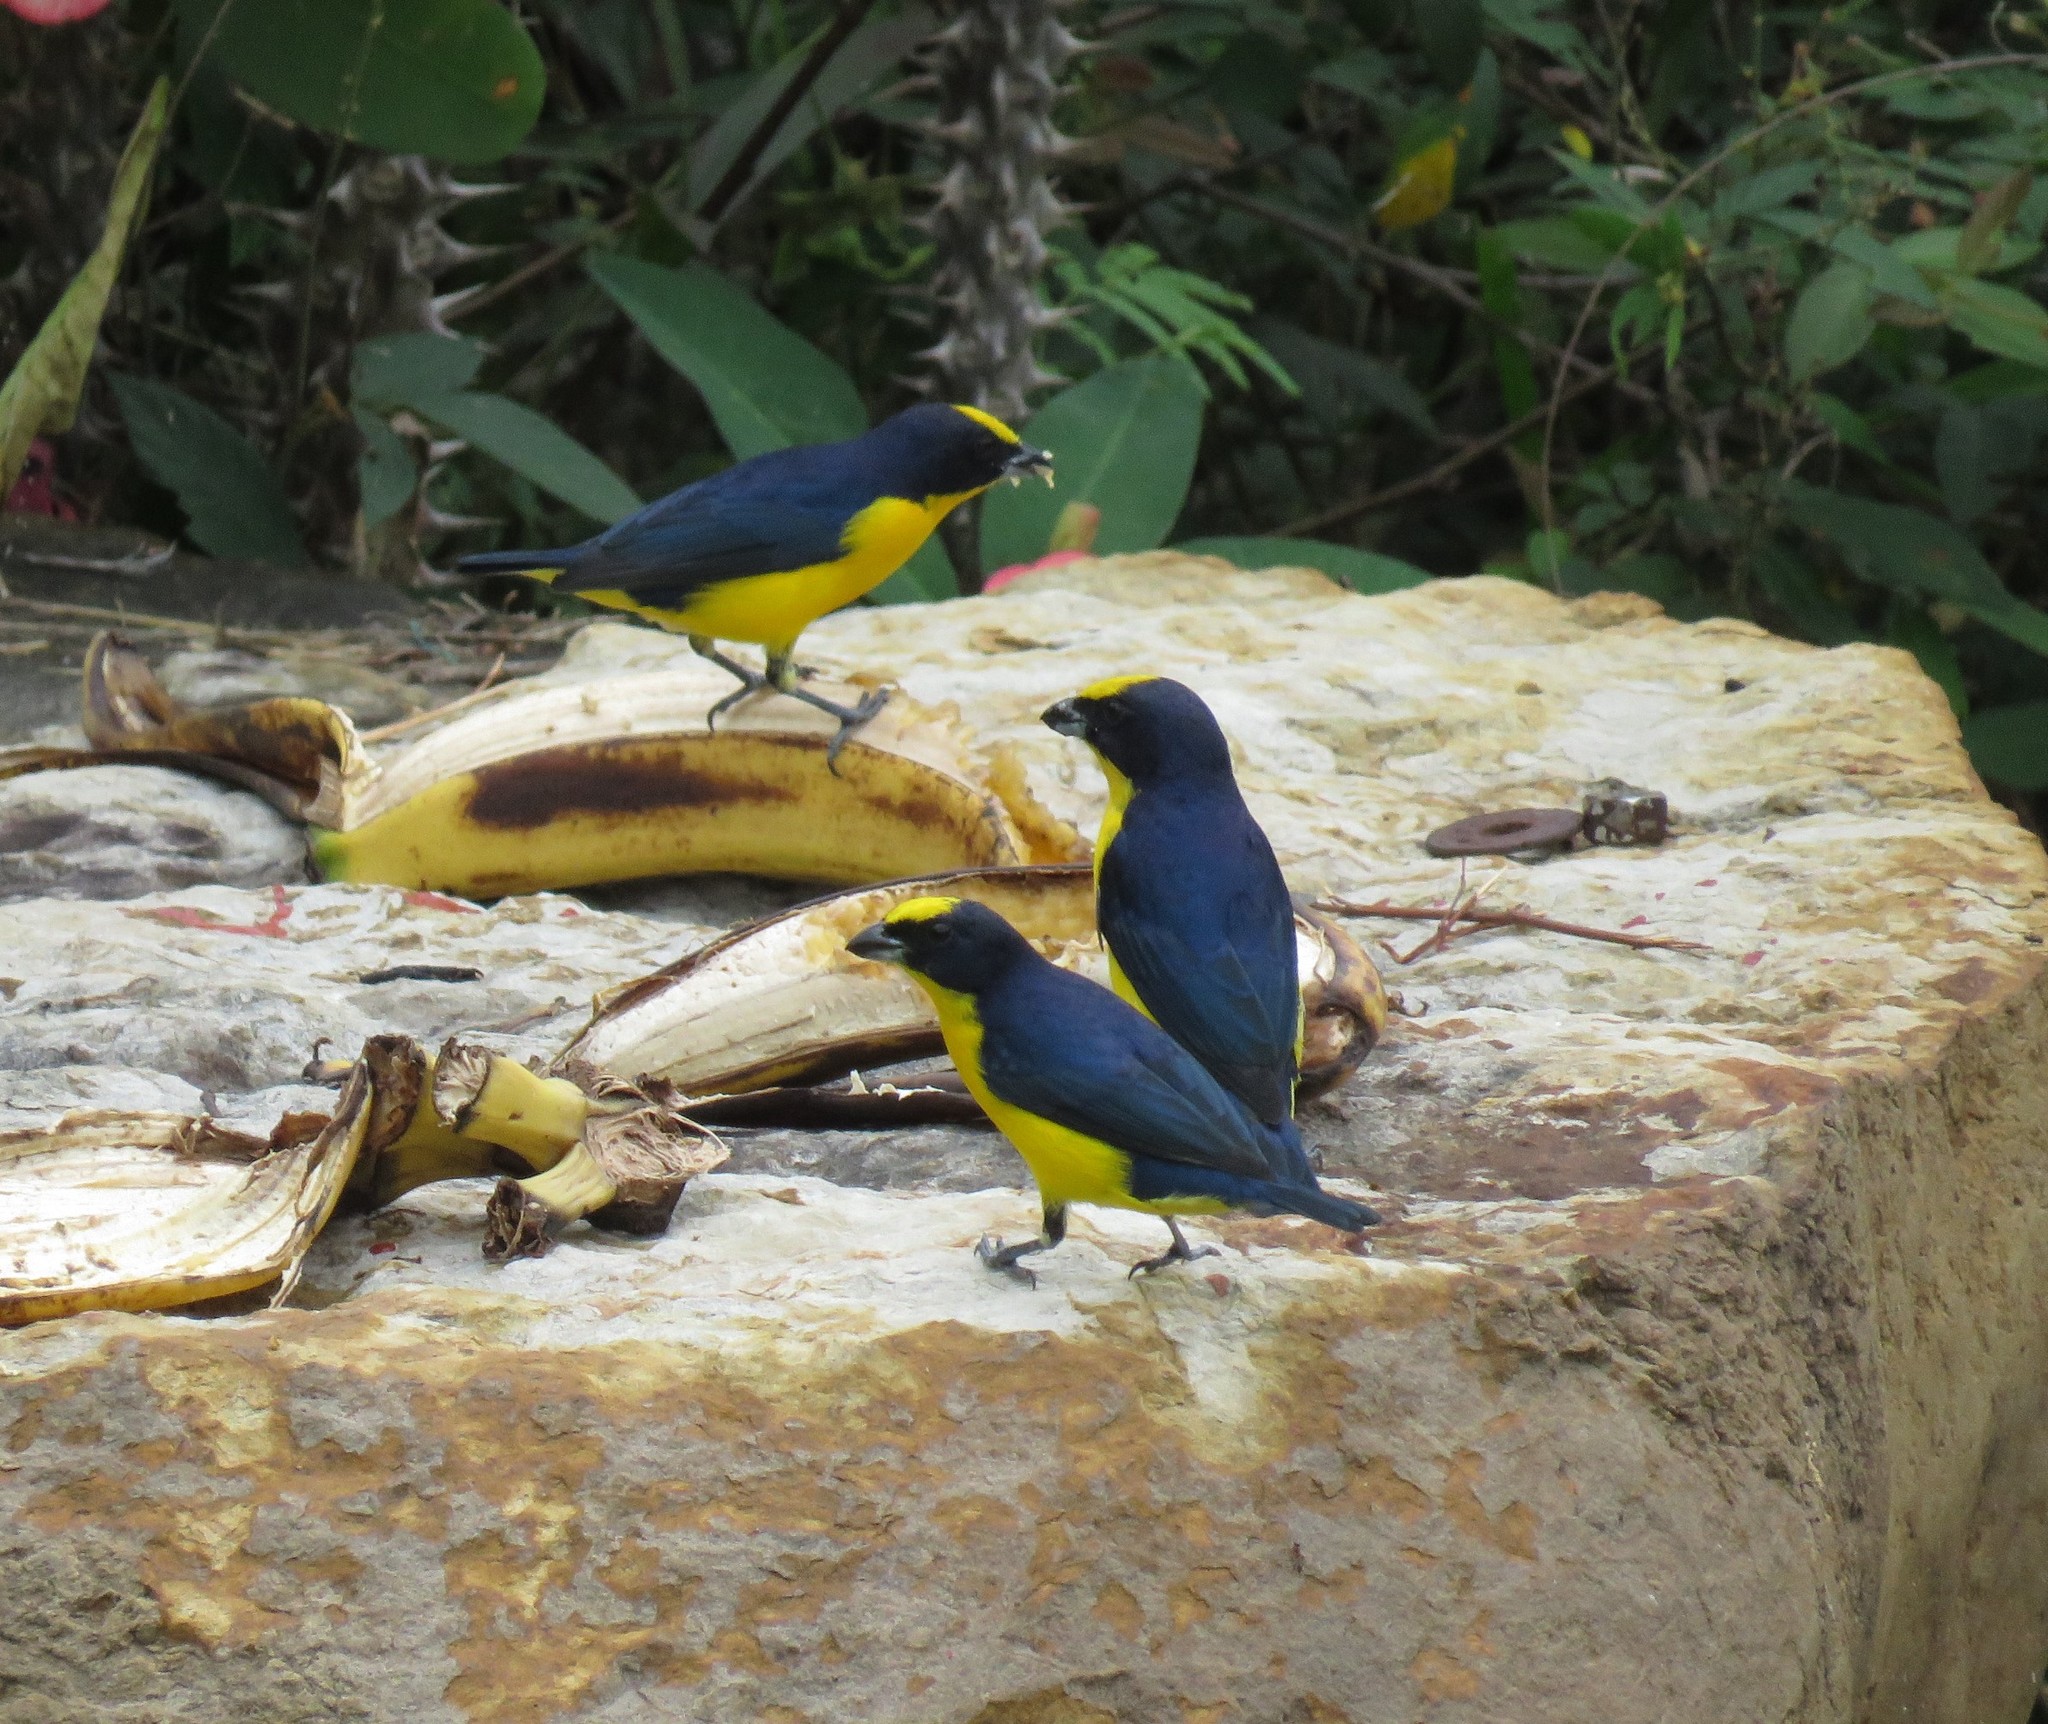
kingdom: Animalia
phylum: Chordata
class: Aves
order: Passeriformes
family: Fringillidae
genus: Euphonia
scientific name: Euphonia laniirostris
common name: Thick-billed euphonia
